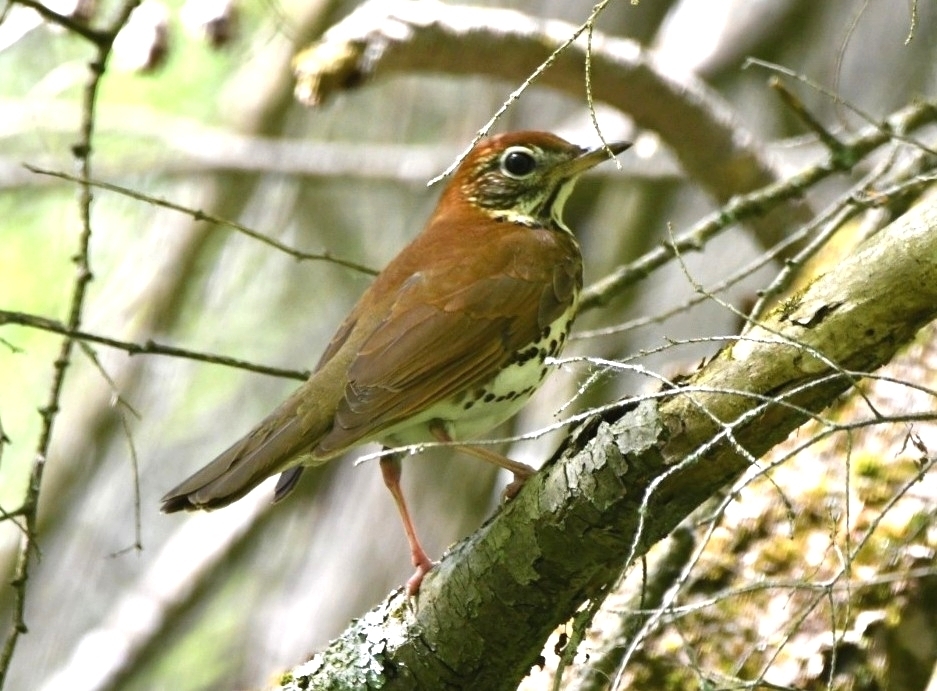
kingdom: Animalia
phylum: Chordata
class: Aves
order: Passeriformes
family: Turdidae
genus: Hylocichla
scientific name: Hylocichla mustelina
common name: Wood thrush
